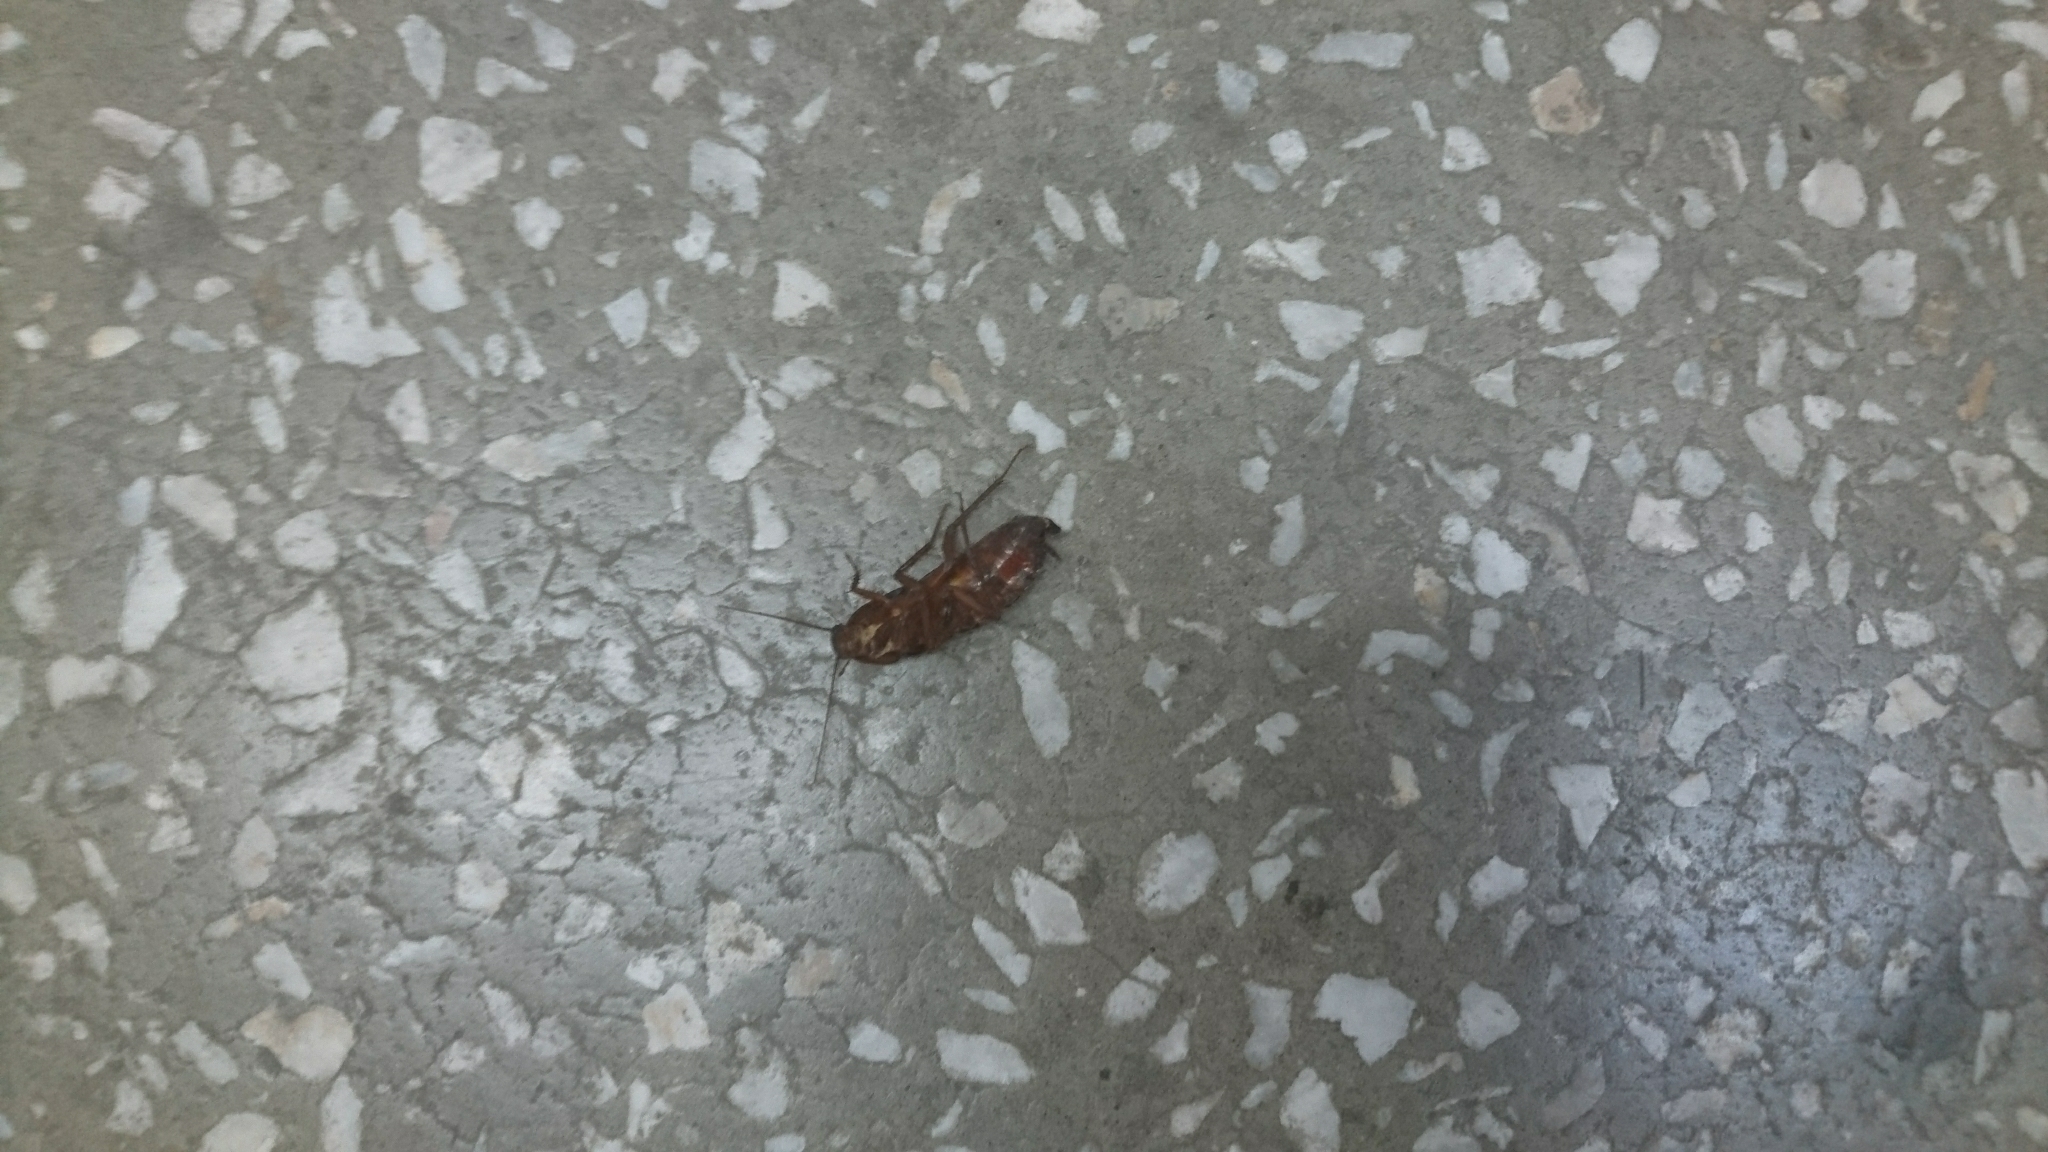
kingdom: Animalia
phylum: Arthropoda
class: Insecta
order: Blattodea
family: Blattidae
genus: Blatta
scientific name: Blatta orientalis
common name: Oriental cockroach
